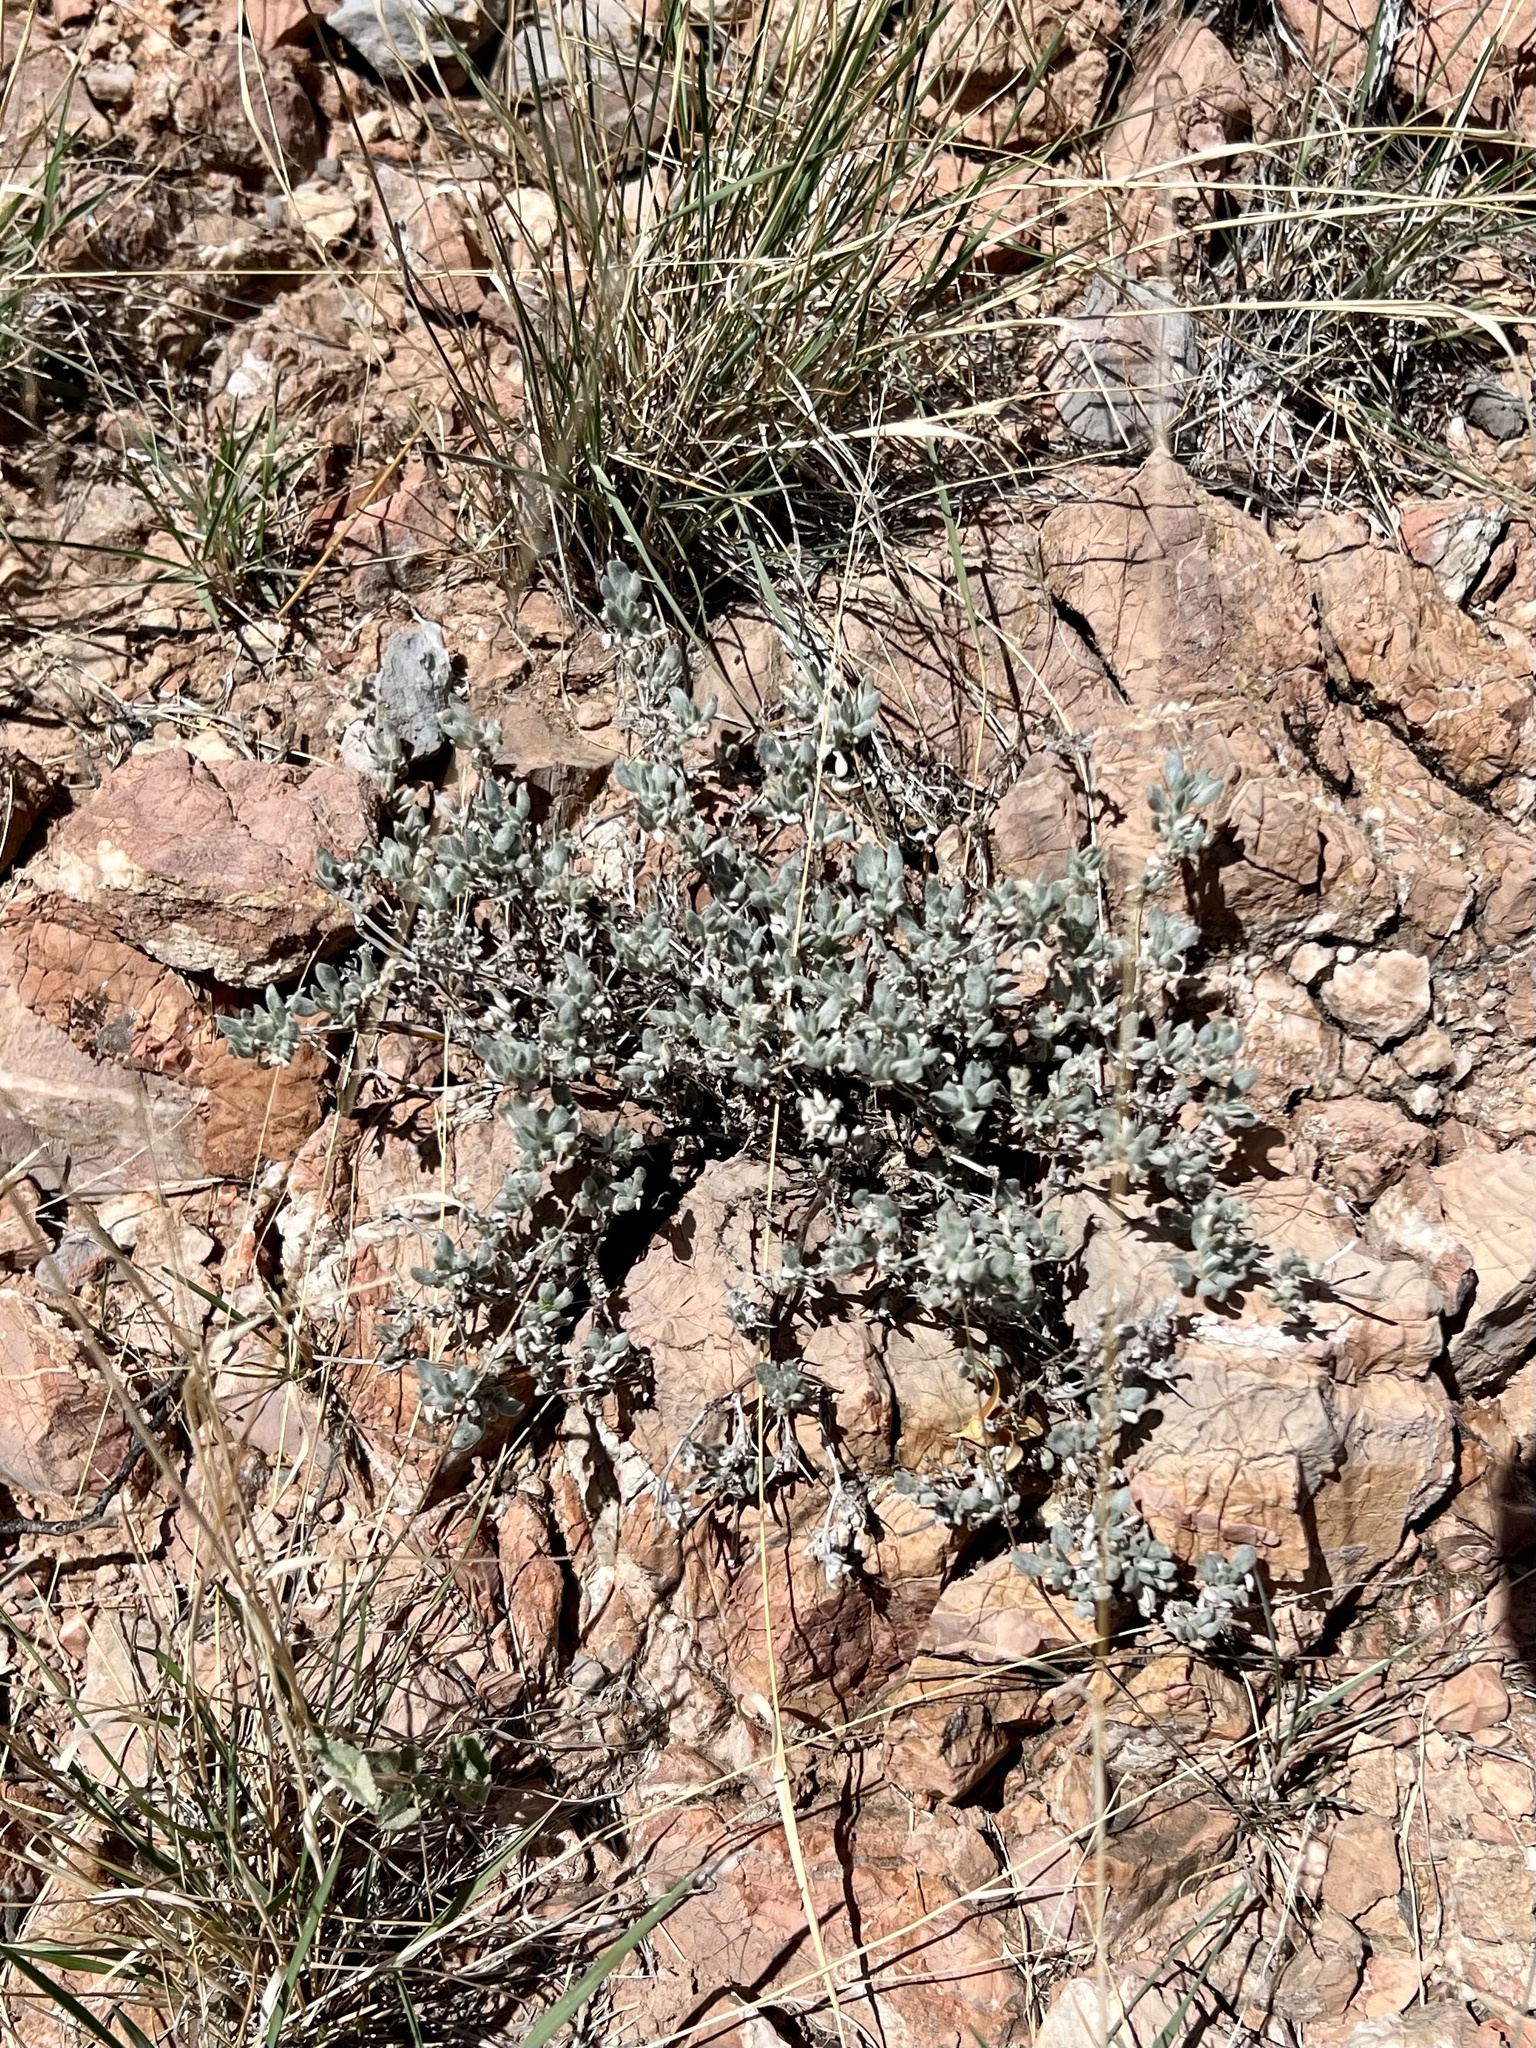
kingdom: Plantae
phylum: Tracheophyta
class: Magnoliopsida
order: Boraginales
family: Ehretiaceae
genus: Tiquilia
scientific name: Tiquilia canescens
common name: Hairy tiquilia
